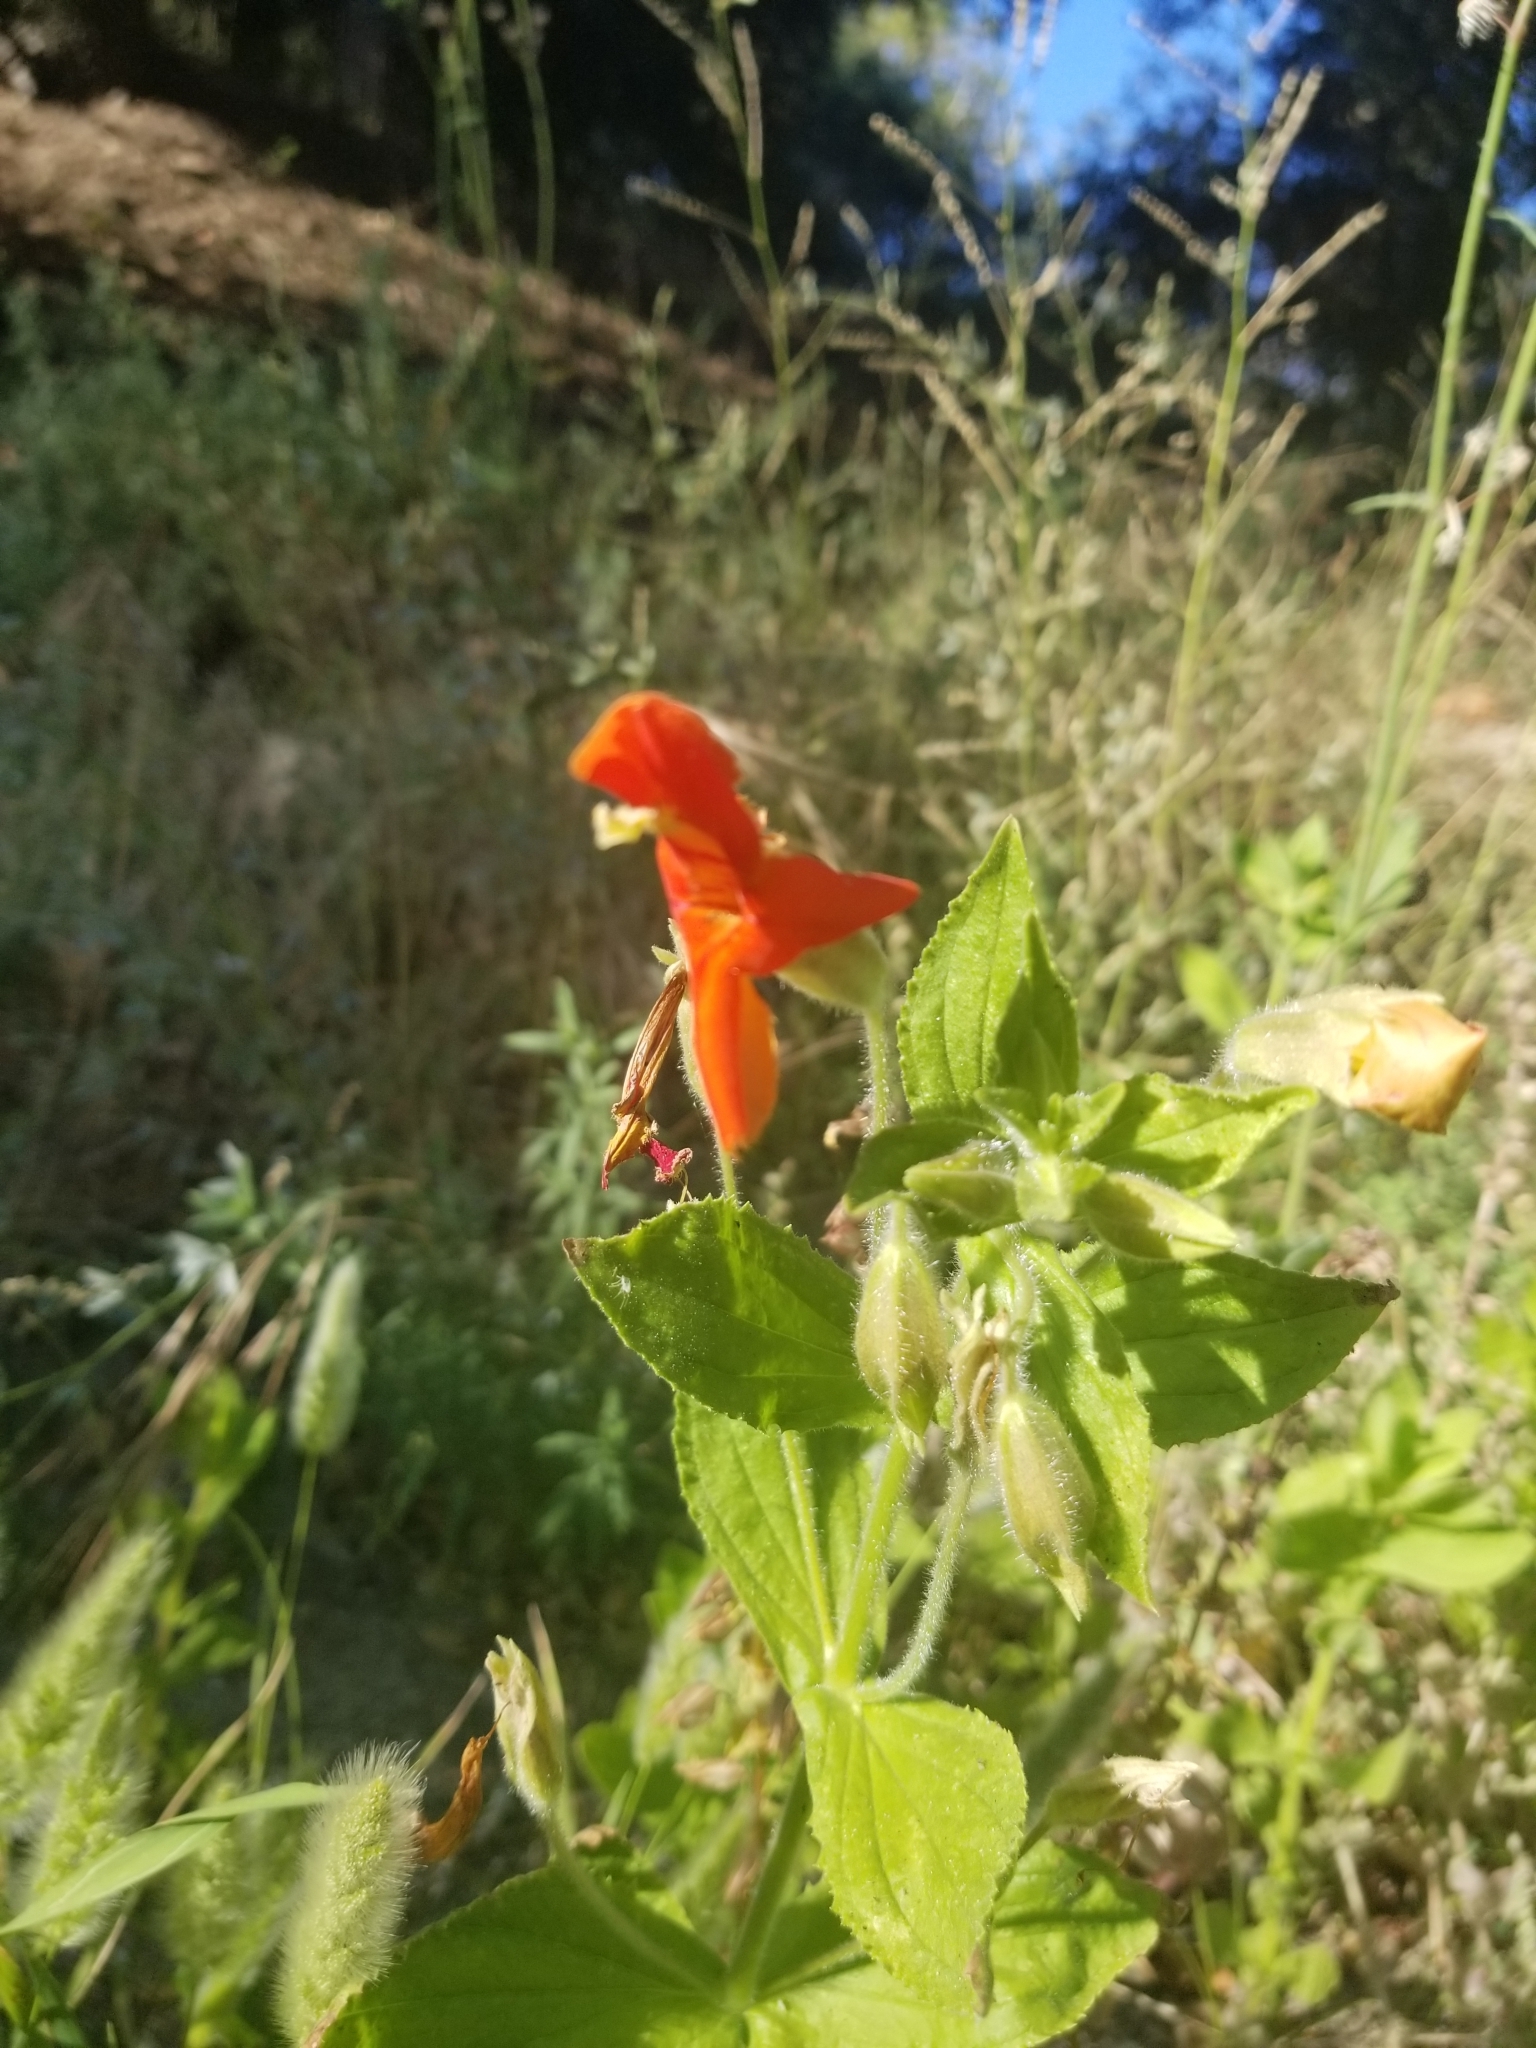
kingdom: Plantae
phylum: Tracheophyta
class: Magnoliopsida
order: Lamiales
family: Phrymaceae
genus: Erythranthe
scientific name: Erythranthe cardinalis
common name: Scarlet monkey-flower
